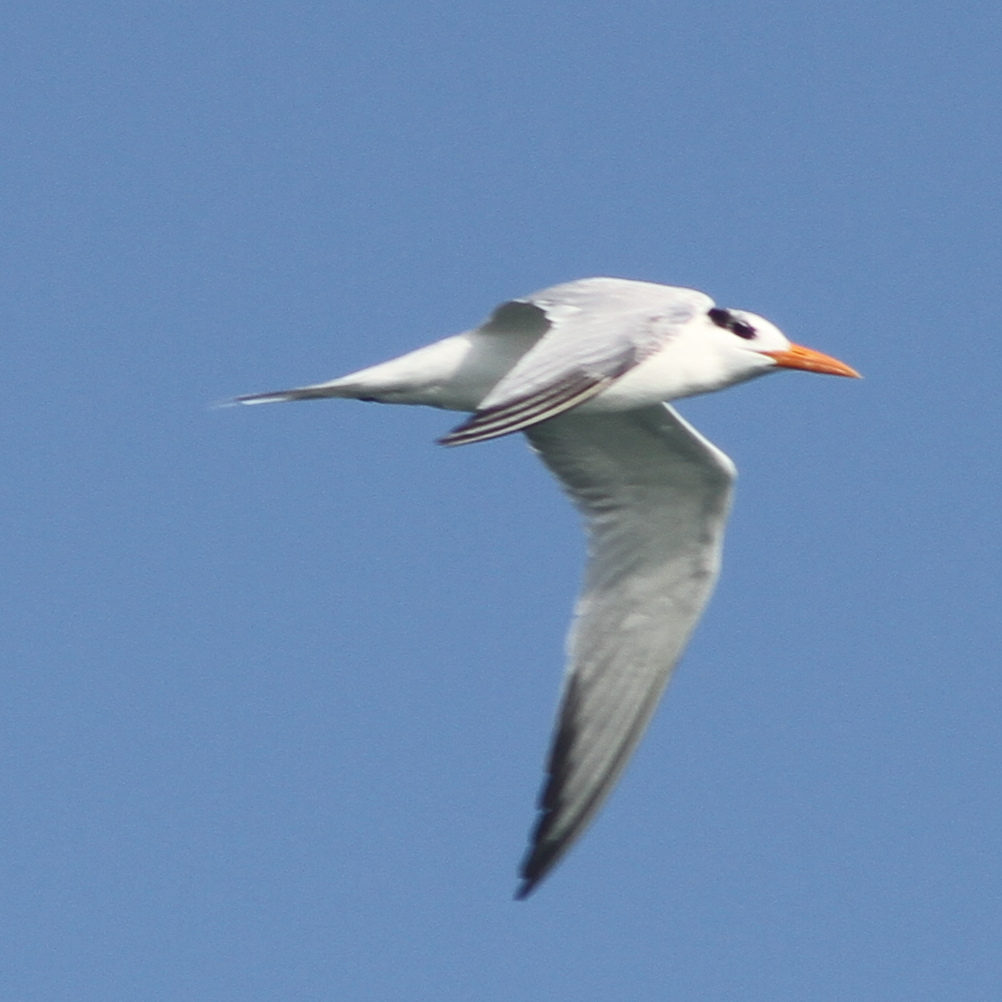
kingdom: Animalia
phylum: Chordata
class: Aves
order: Charadriiformes
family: Laridae
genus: Thalasseus
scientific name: Thalasseus maximus
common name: Royal tern
